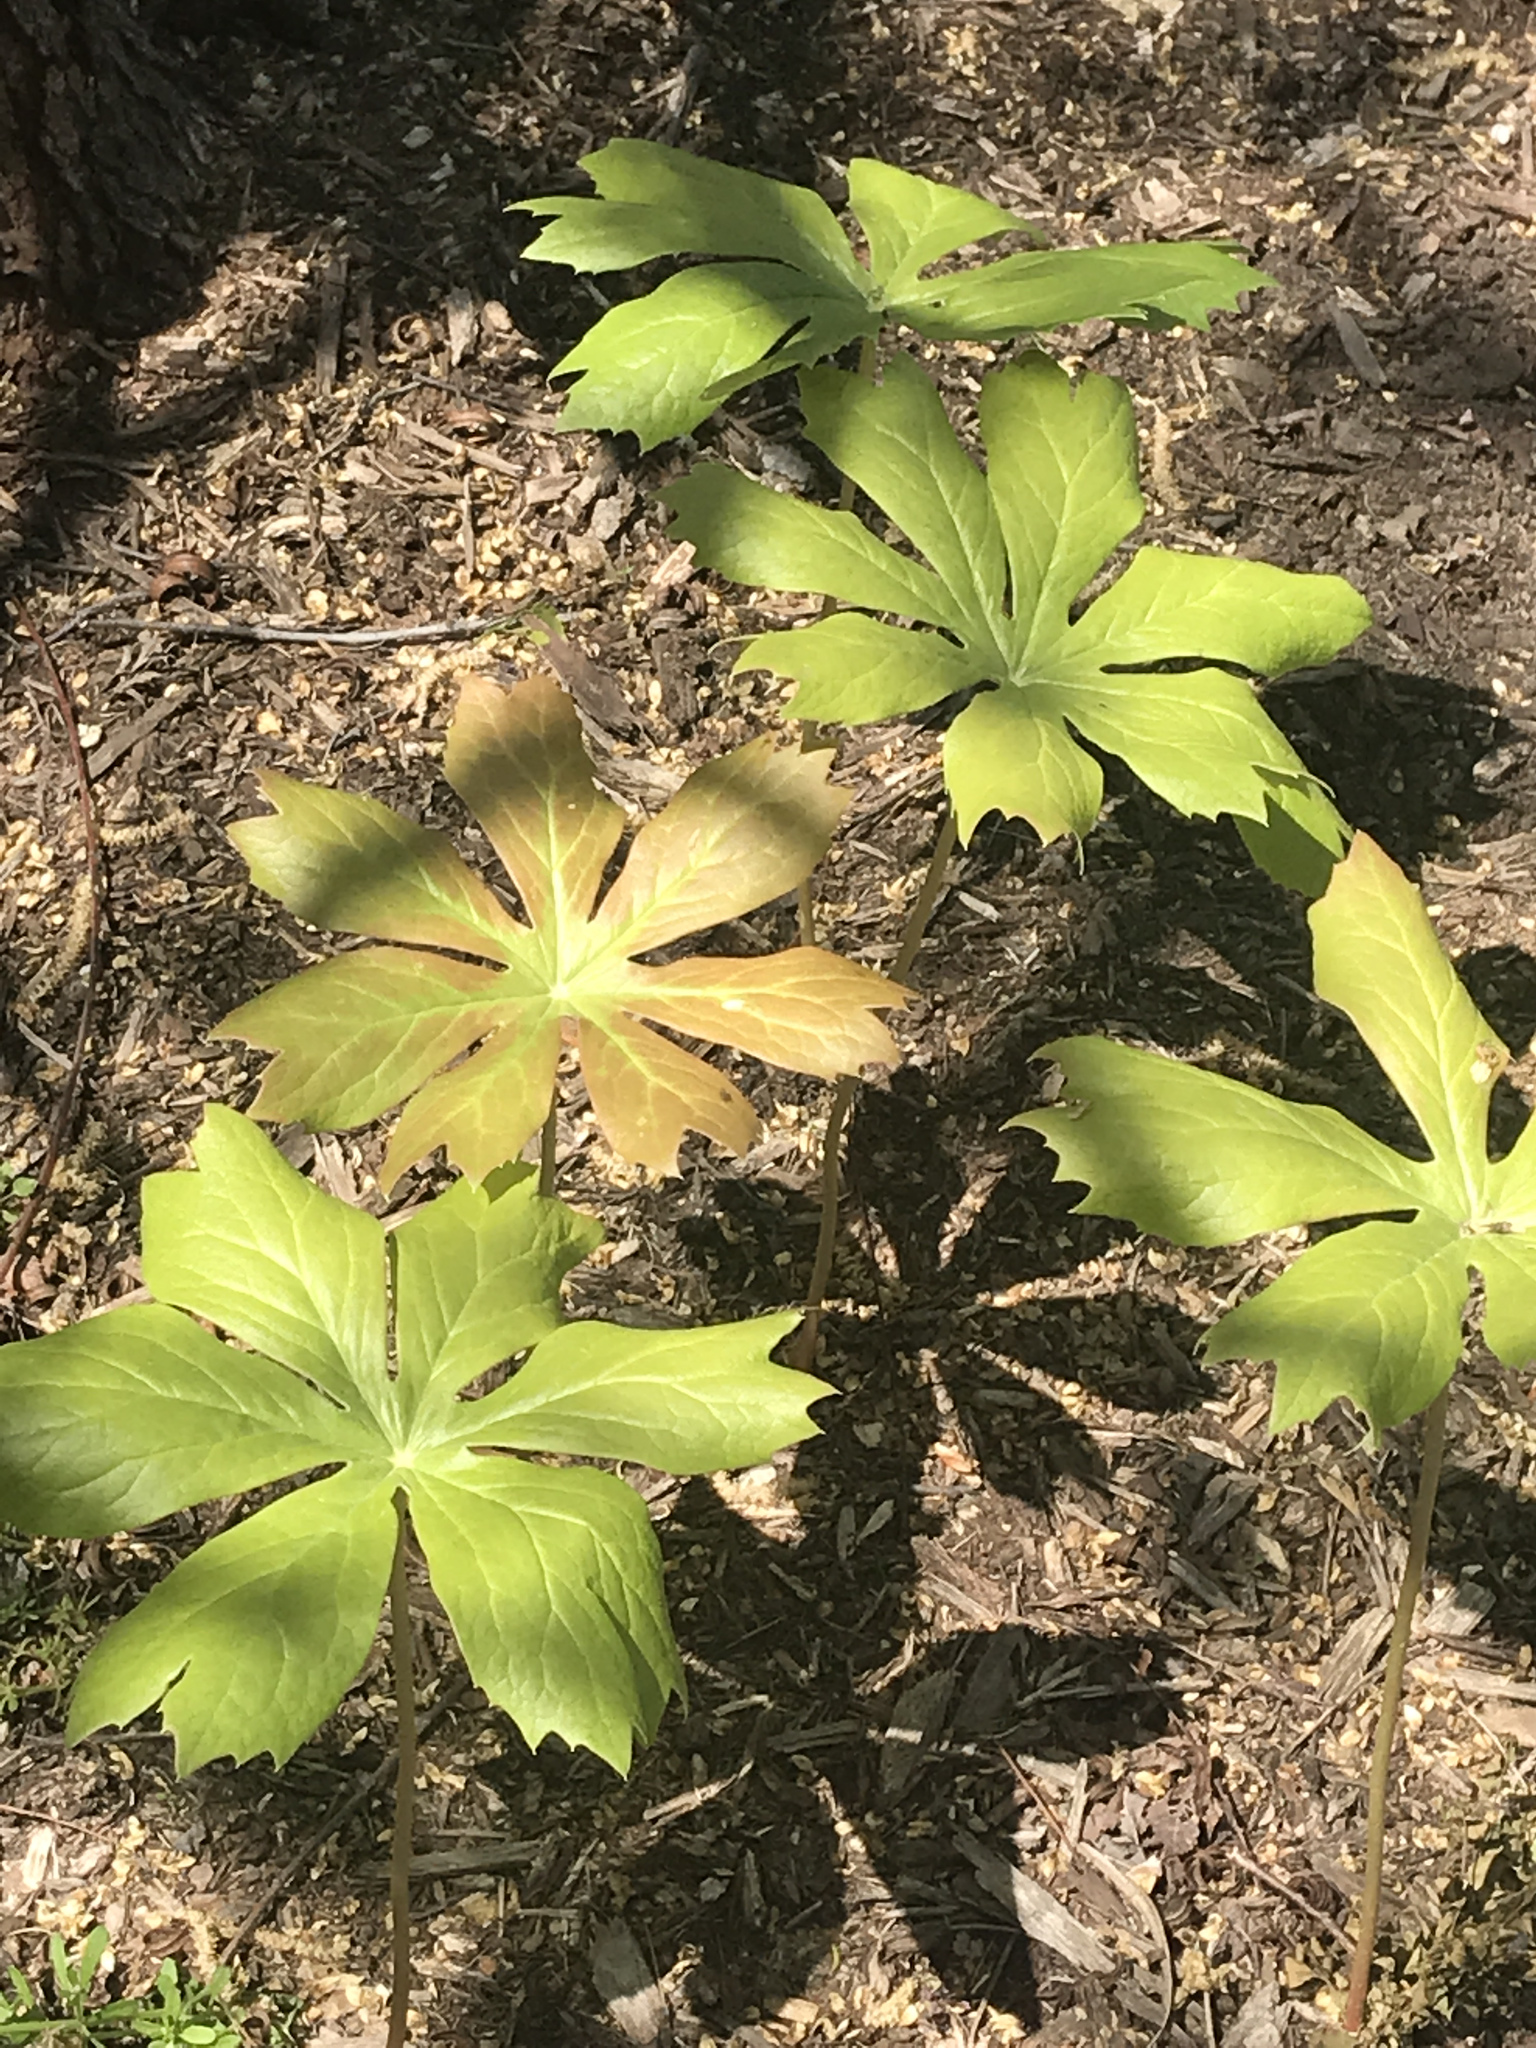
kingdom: Plantae
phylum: Tracheophyta
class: Magnoliopsida
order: Ranunculales
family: Berberidaceae
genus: Podophyllum
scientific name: Podophyllum peltatum
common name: Wild mandrake
